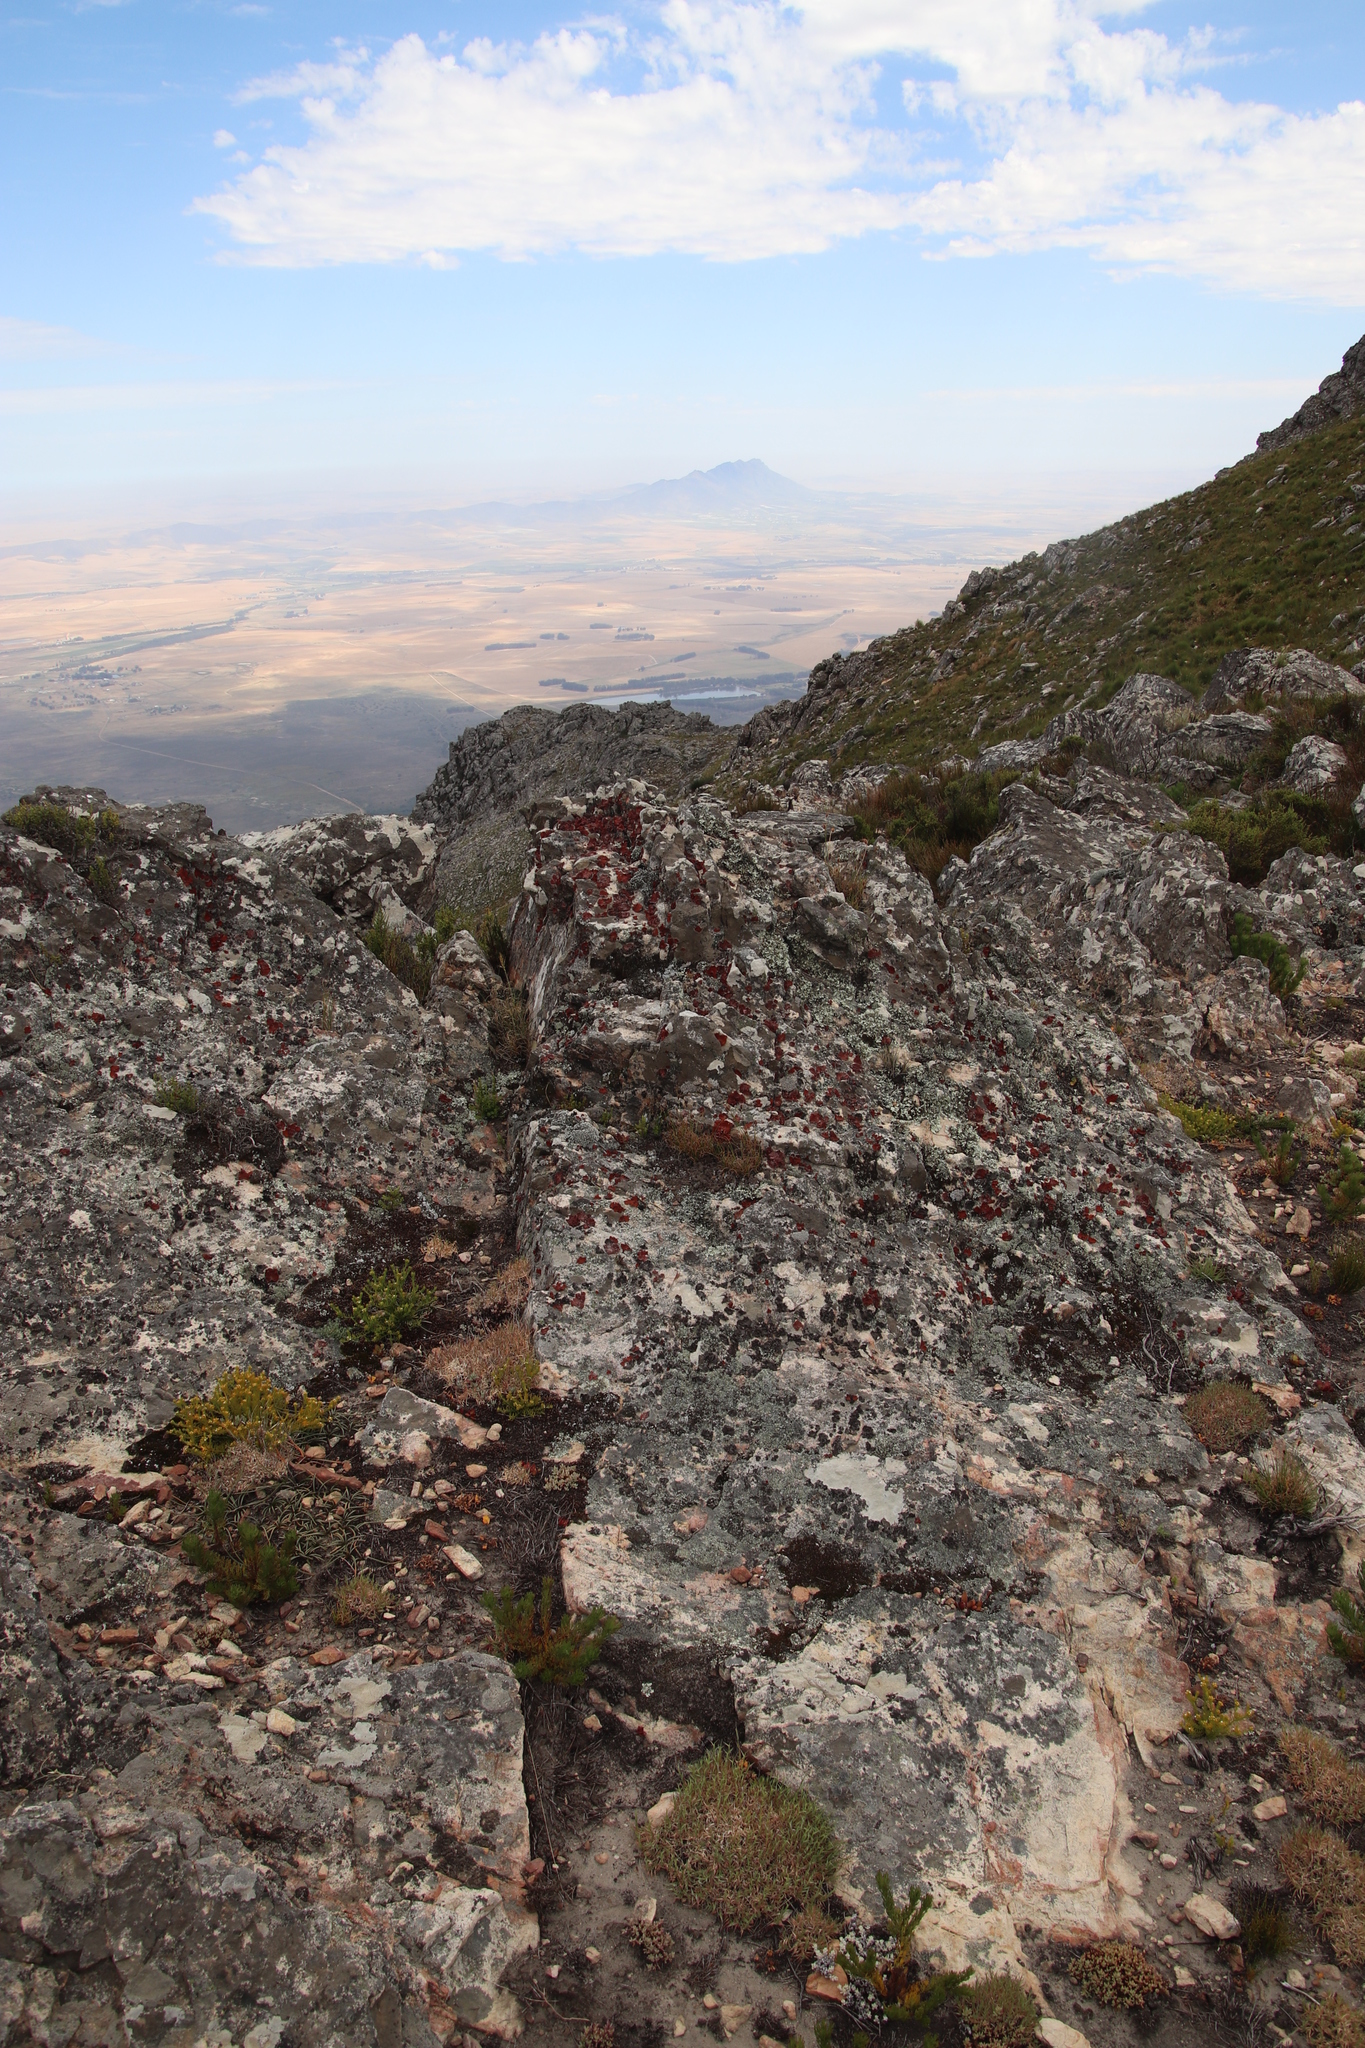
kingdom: Fungi
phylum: Ascomycota
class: Lecanoromycetes
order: Umbilicariales
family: Umbilicariaceae
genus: Lasallia
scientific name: Lasallia rubiginosa
